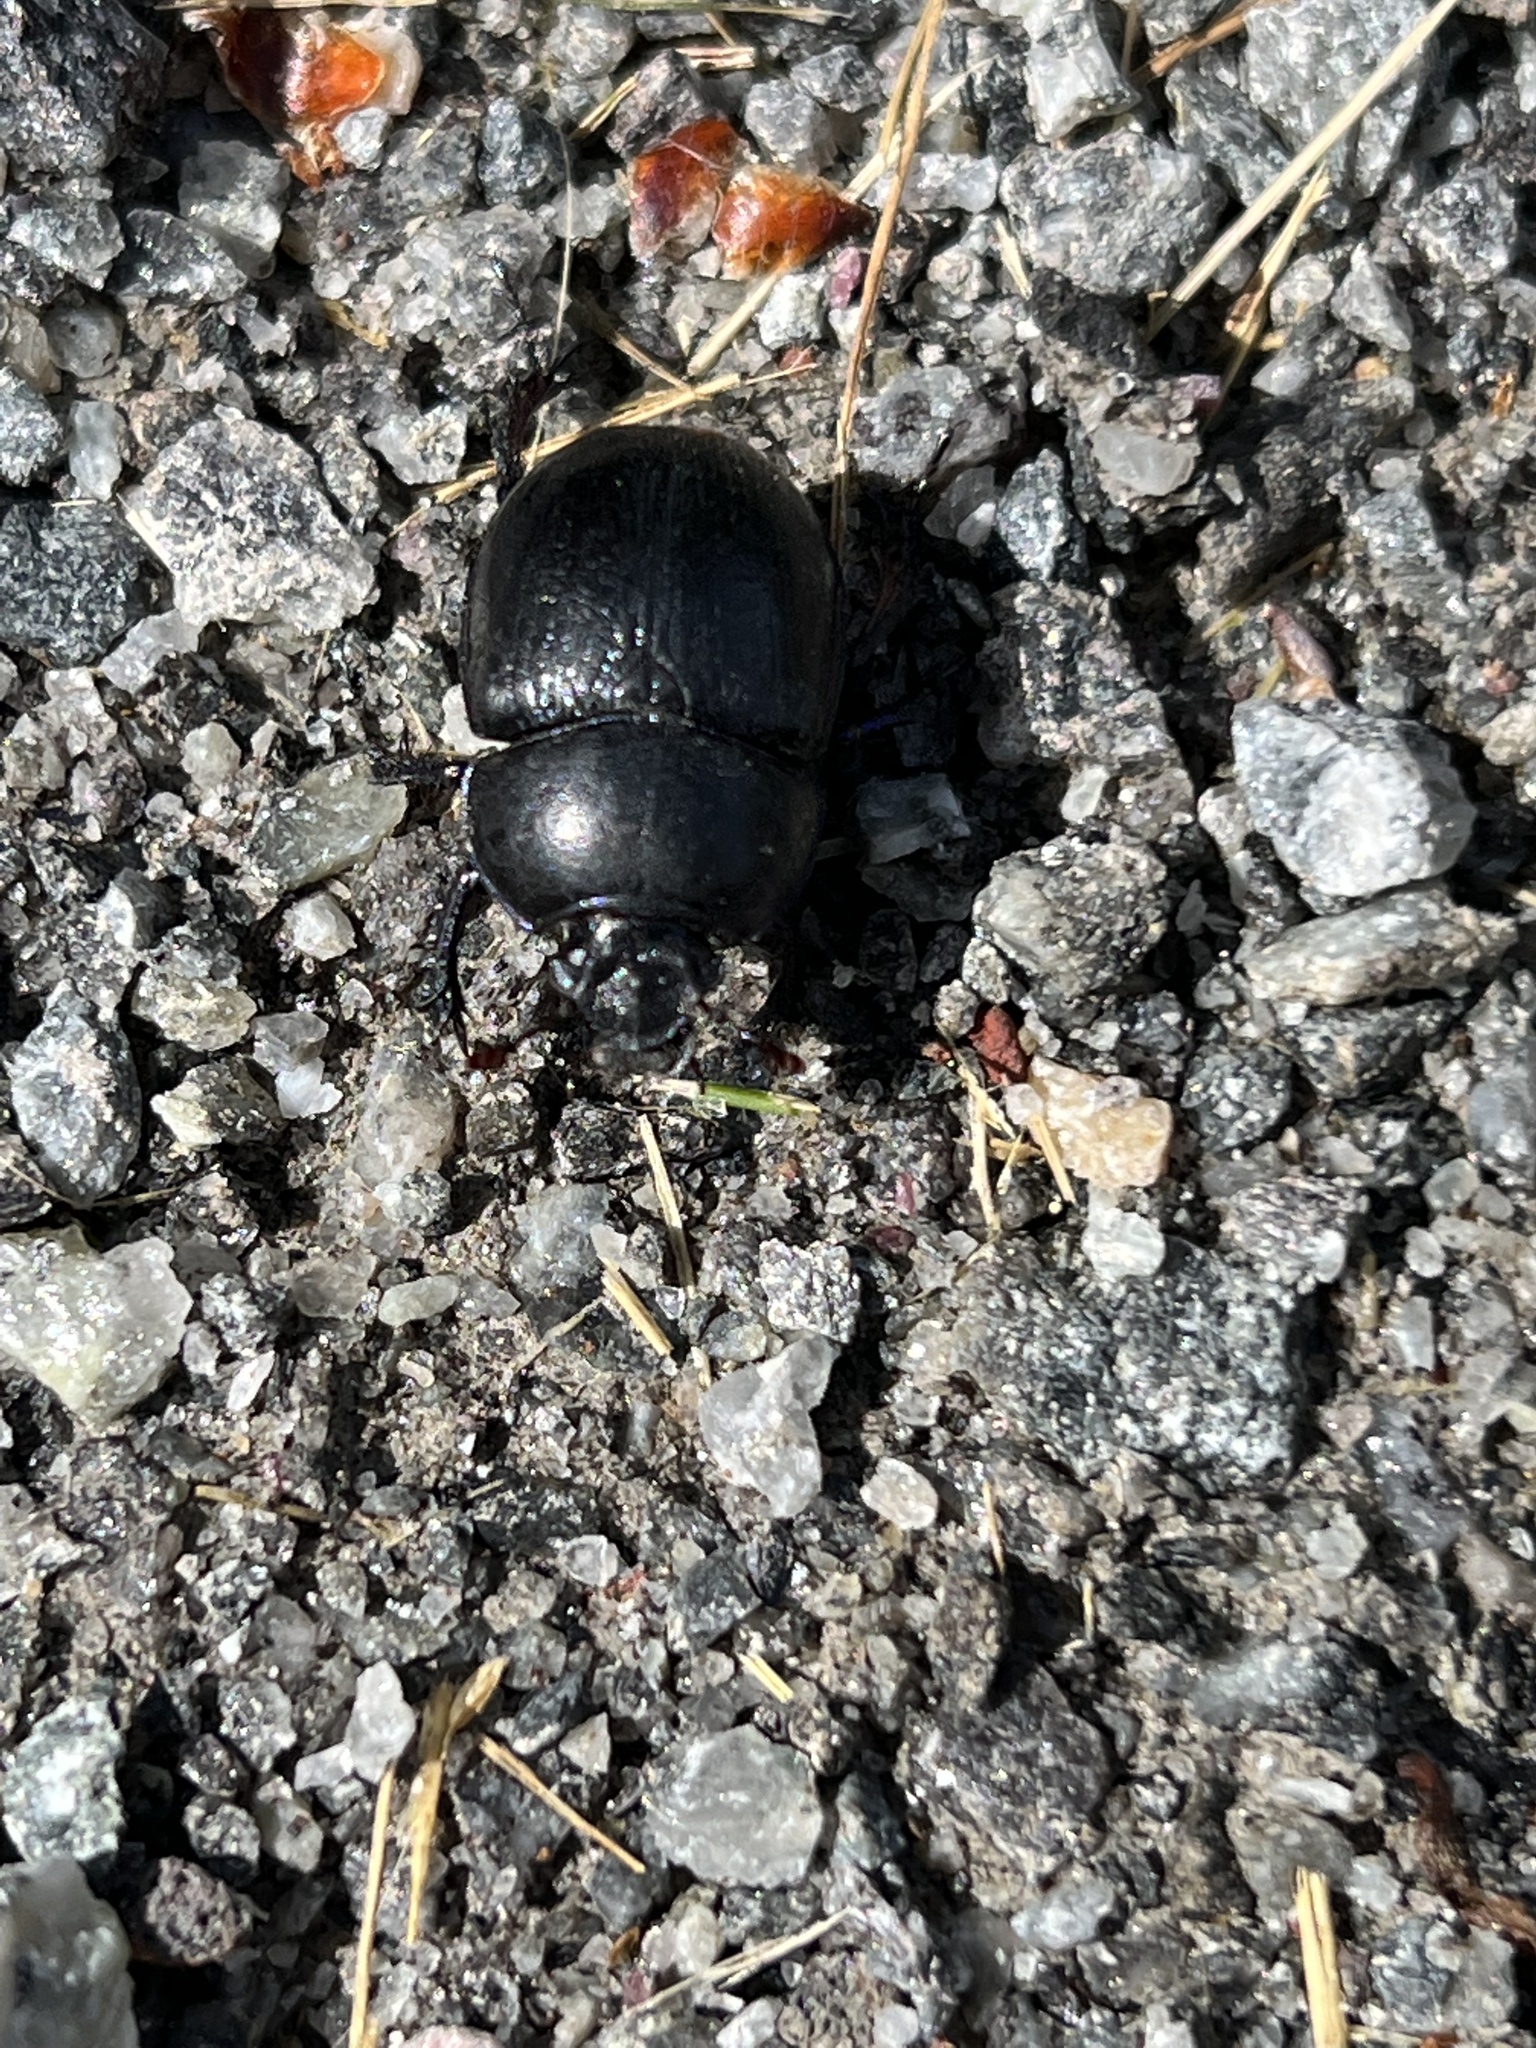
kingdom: Animalia
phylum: Arthropoda
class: Insecta
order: Coleoptera
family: Geotrupidae
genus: Anoplotrupes
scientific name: Anoplotrupes stercorosus
